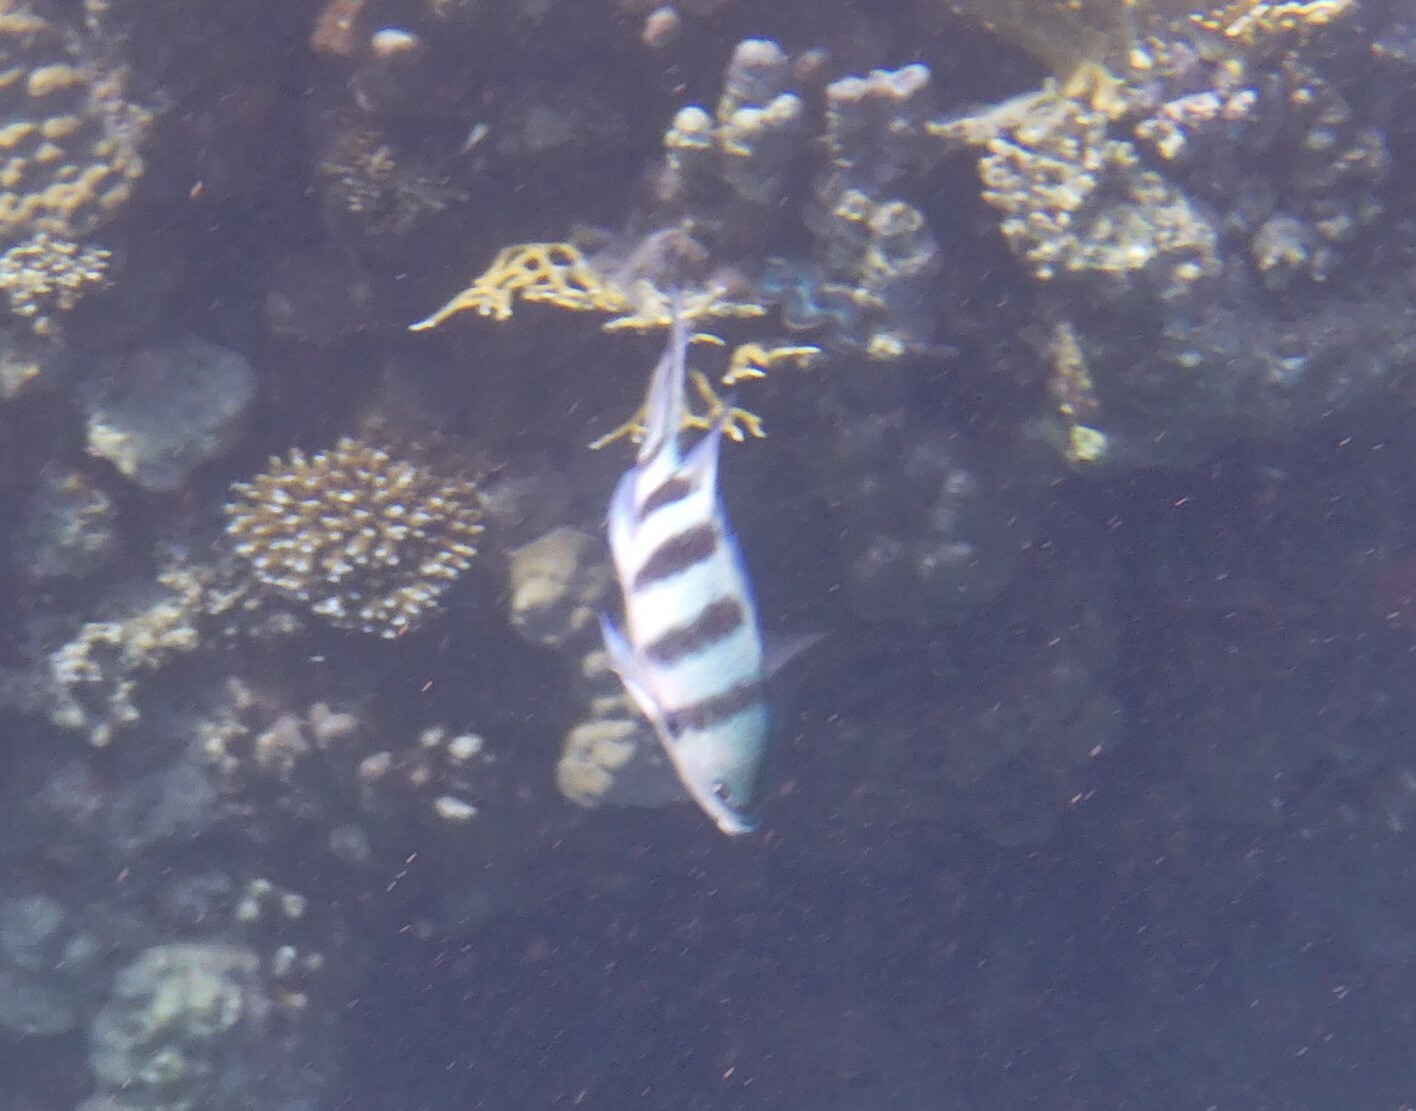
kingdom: Animalia
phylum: Chordata
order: Perciformes
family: Pomacentridae
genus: Abudefduf
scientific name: Abudefduf sexfasciatus
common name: Scissortail sergeant
